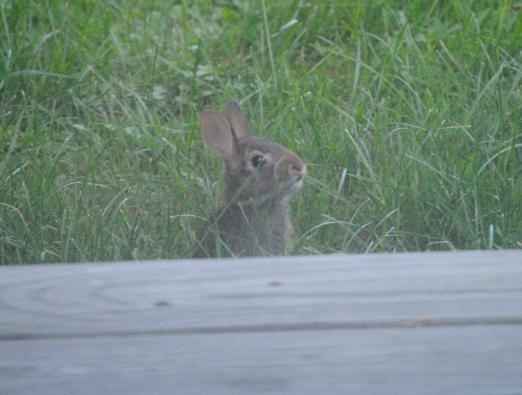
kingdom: Animalia
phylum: Chordata
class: Mammalia
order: Lagomorpha
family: Leporidae
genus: Sylvilagus
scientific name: Sylvilagus floridanus
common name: Eastern cottontail
